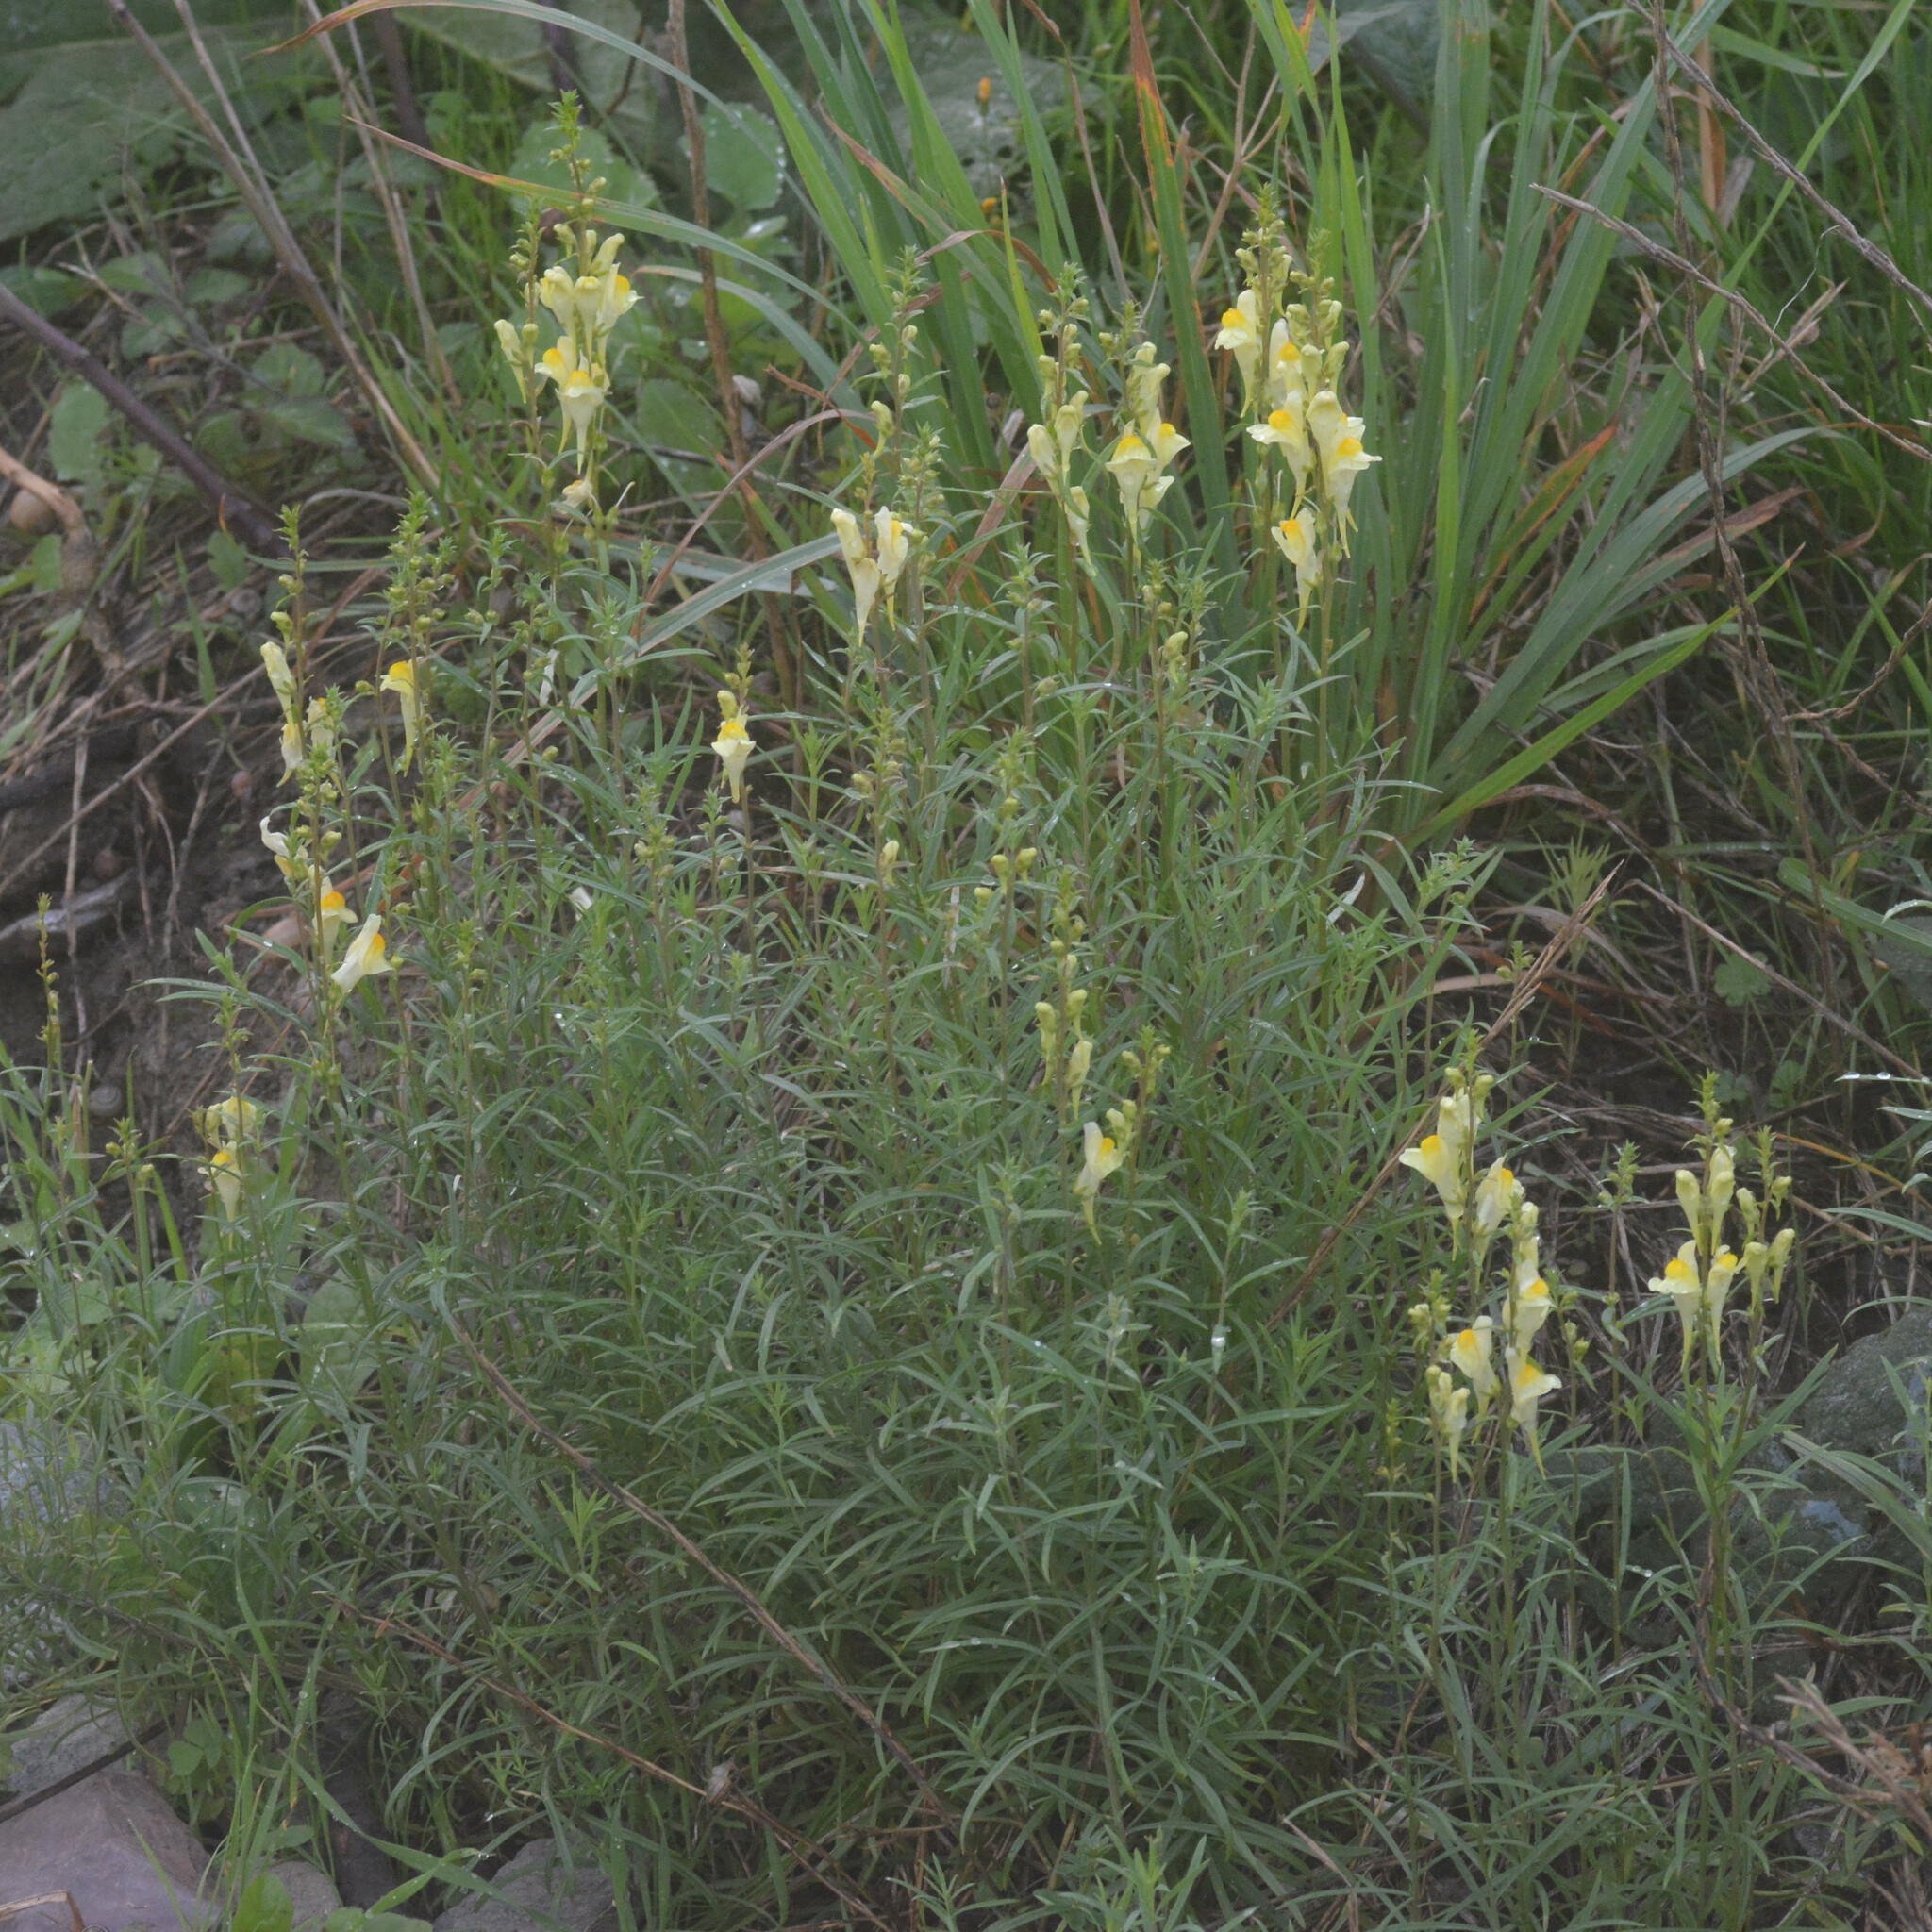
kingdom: Plantae
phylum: Tracheophyta
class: Magnoliopsida
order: Lamiales
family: Plantaginaceae
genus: Linaria
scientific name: Linaria vulgaris
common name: Butter and eggs
